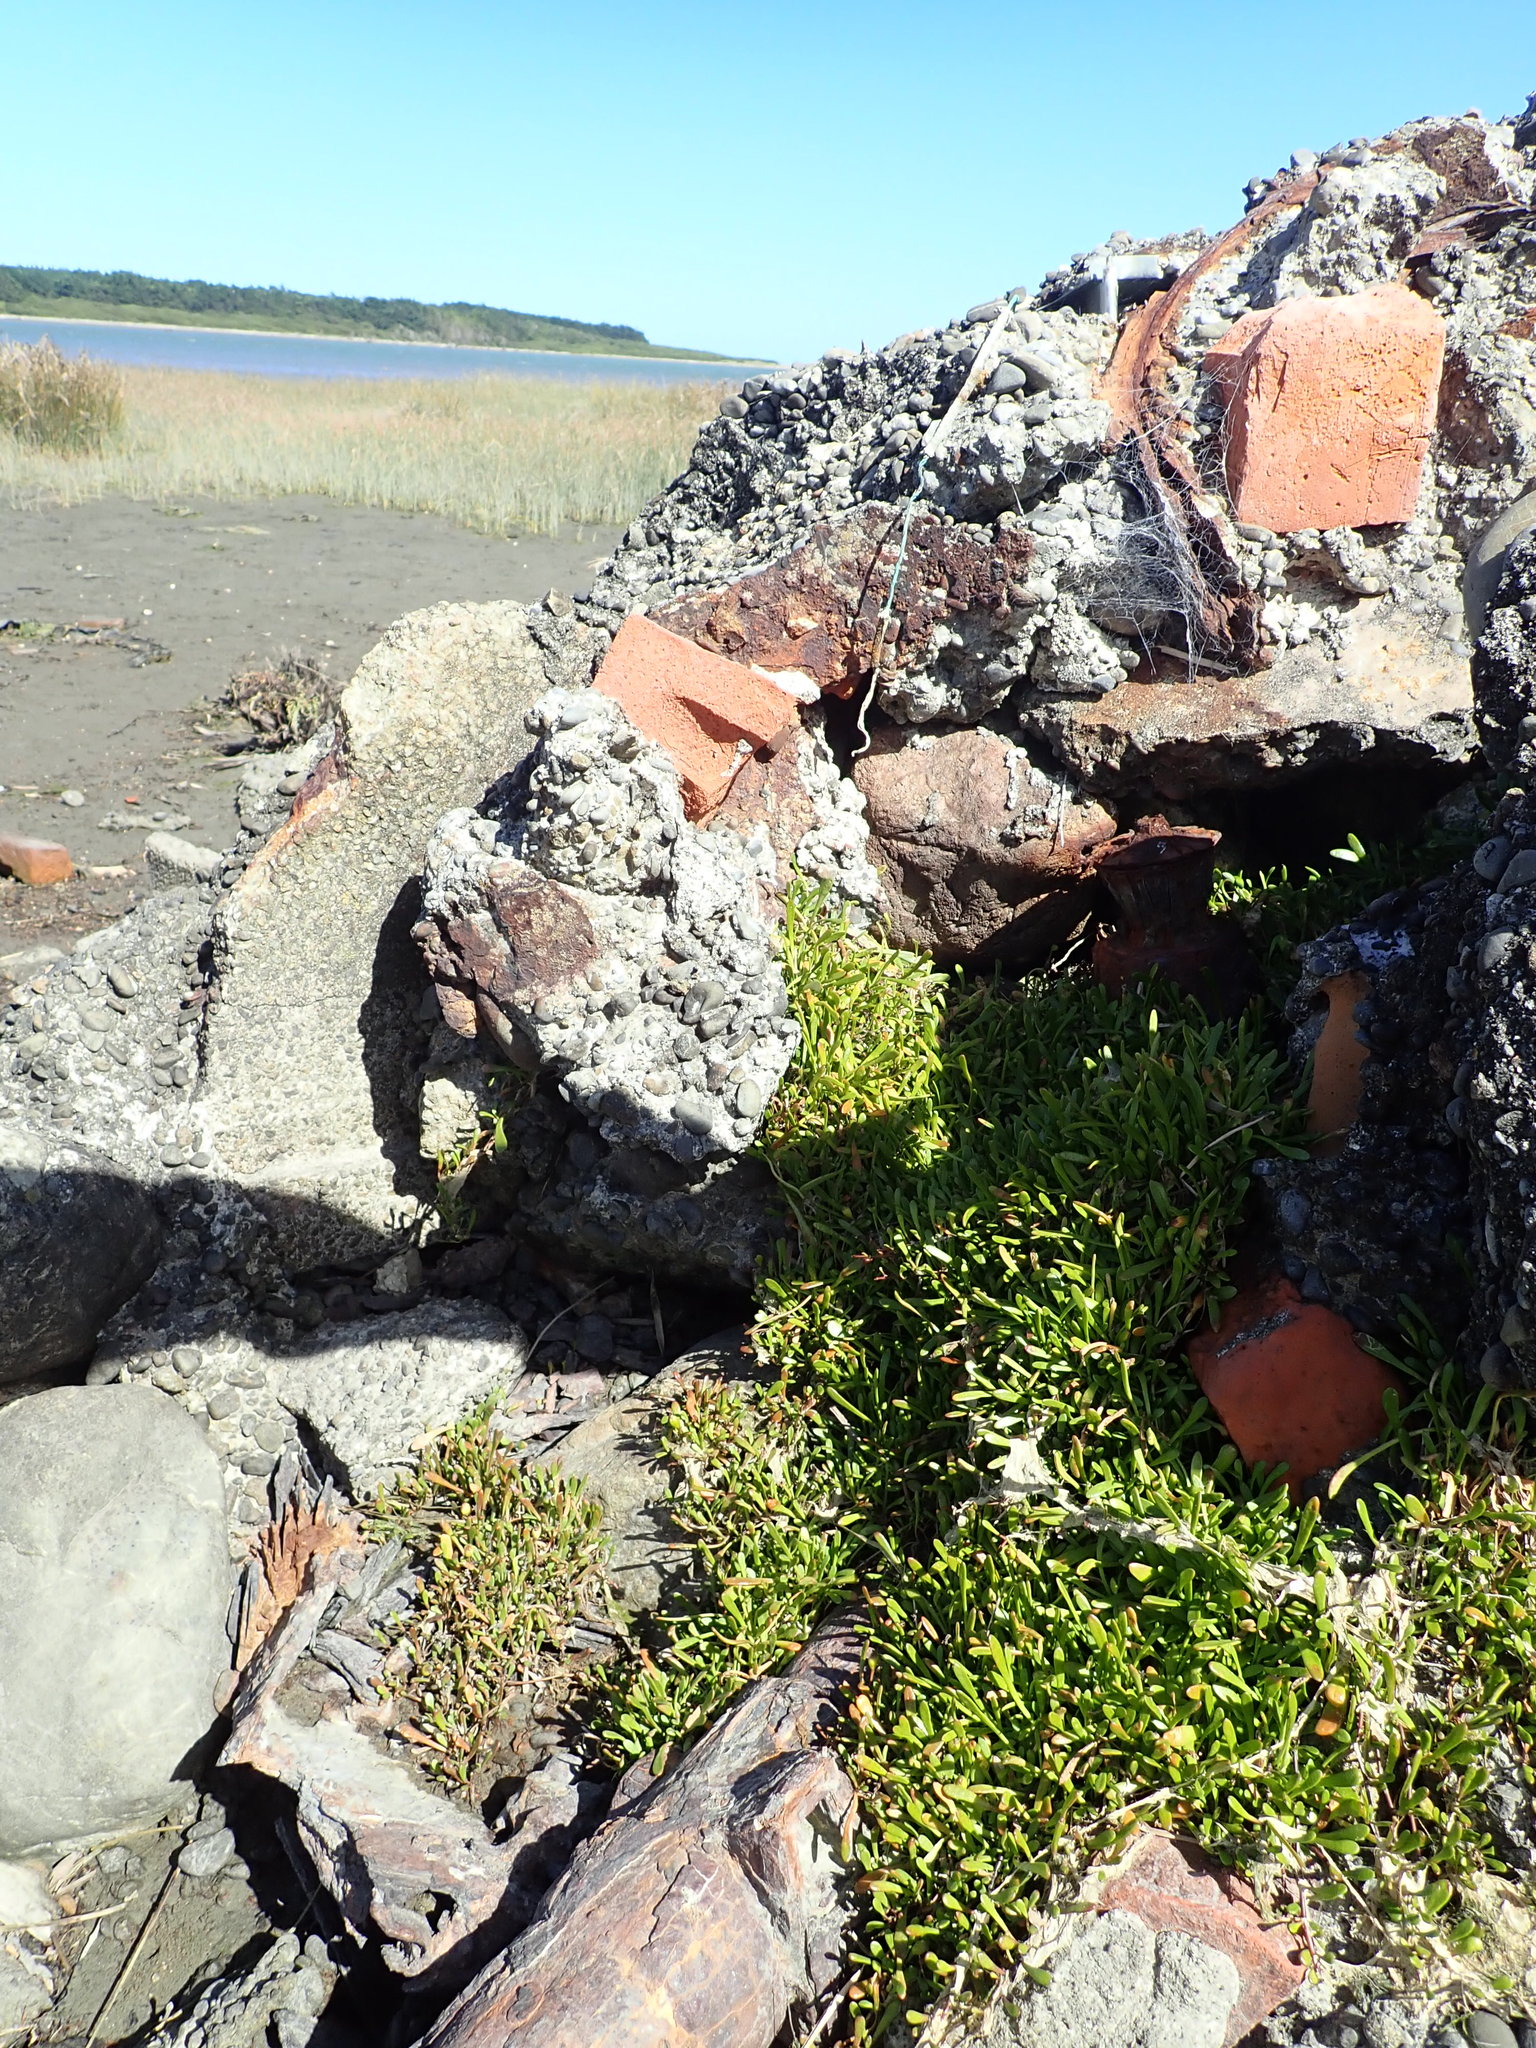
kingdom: Plantae
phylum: Tracheophyta
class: Magnoliopsida
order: Asterales
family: Goodeniaceae
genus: Goodenia
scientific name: Goodenia radicans
